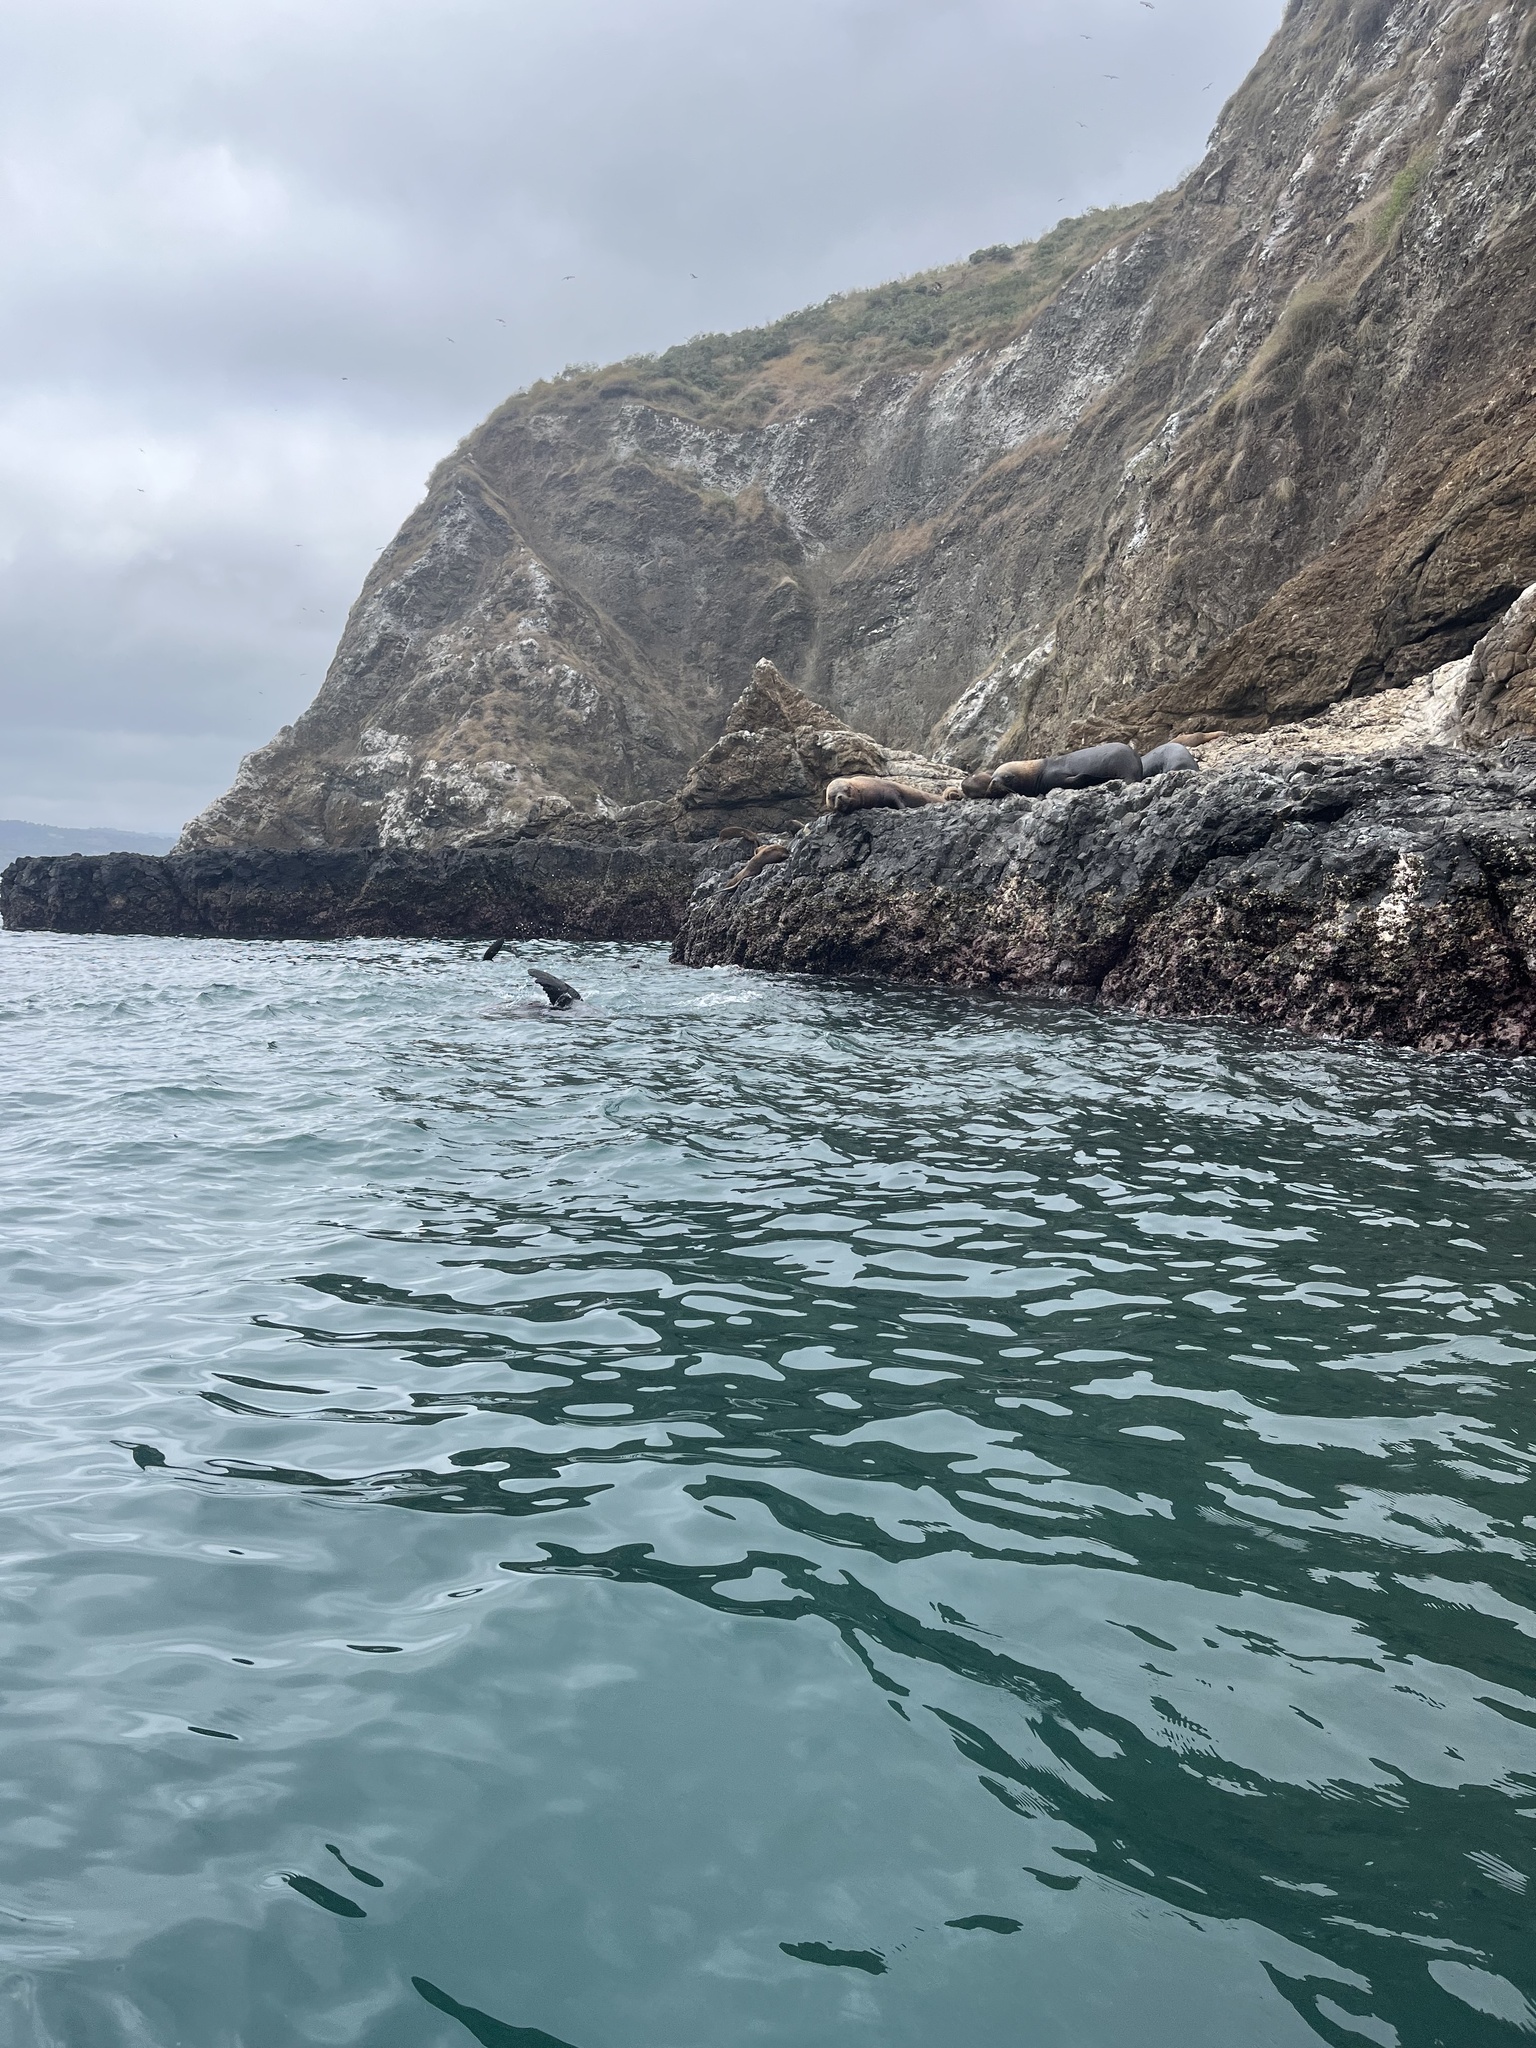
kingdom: Animalia
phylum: Chordata
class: Mammalia
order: Carnivora
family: Otariidae
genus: Otaria
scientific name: Otaria byronia
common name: South american sea lion
